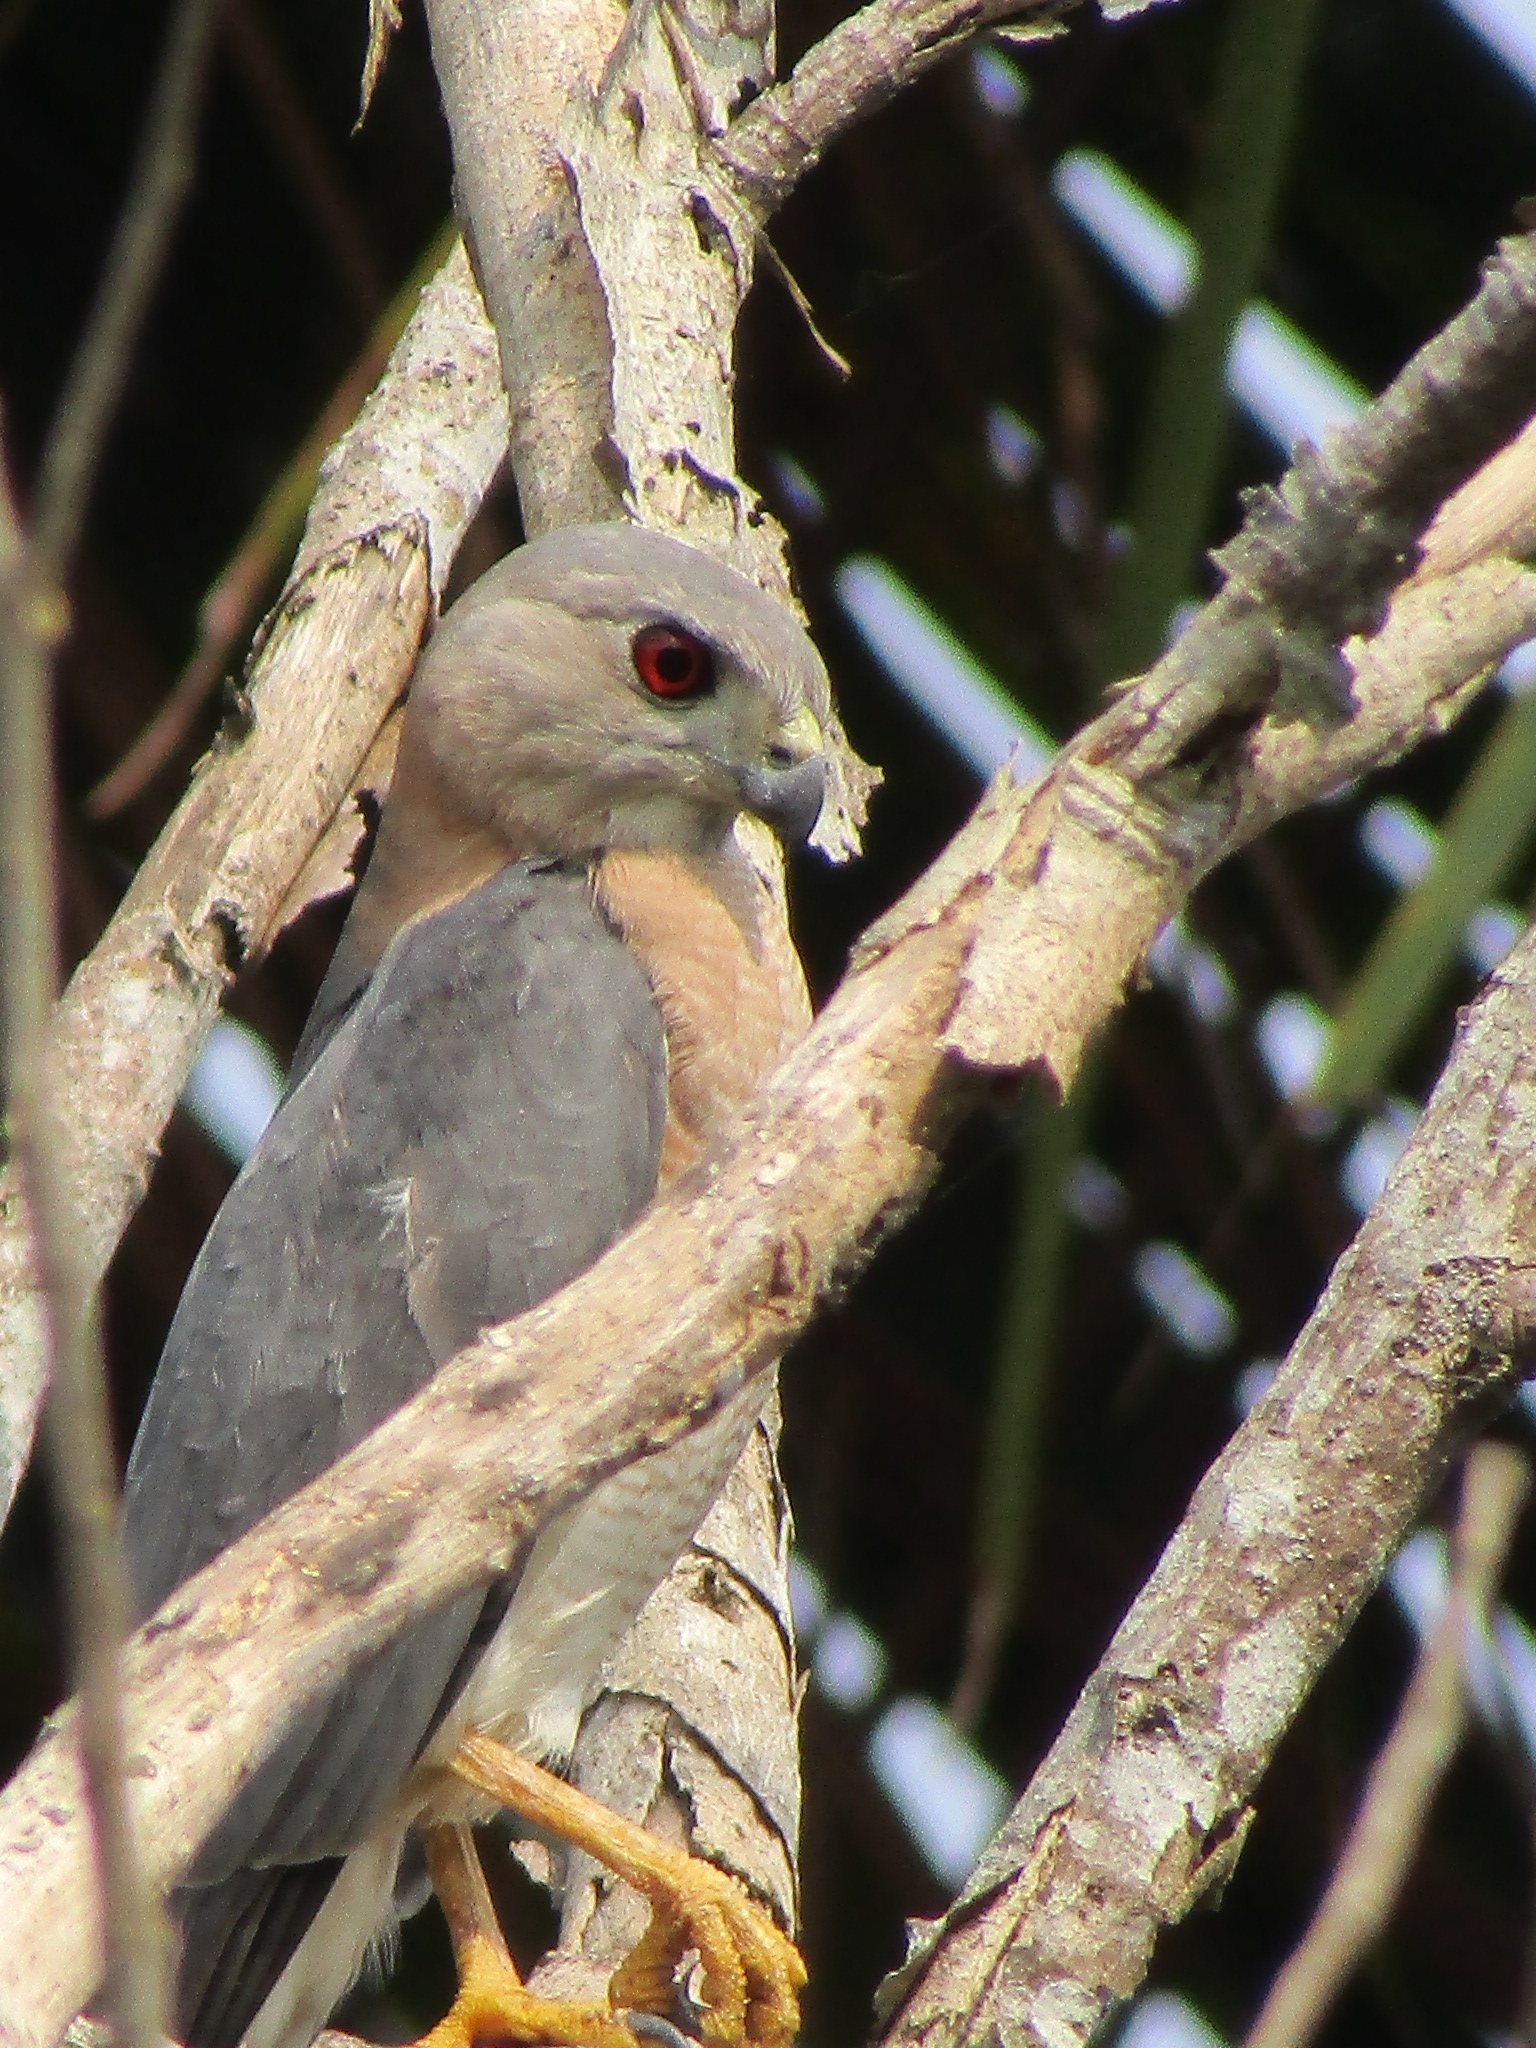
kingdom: Animalia
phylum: Chordata
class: Aves
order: Accipitriformes
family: Accipitridae
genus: Accipiter
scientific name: Accipiter badius
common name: Shikra
